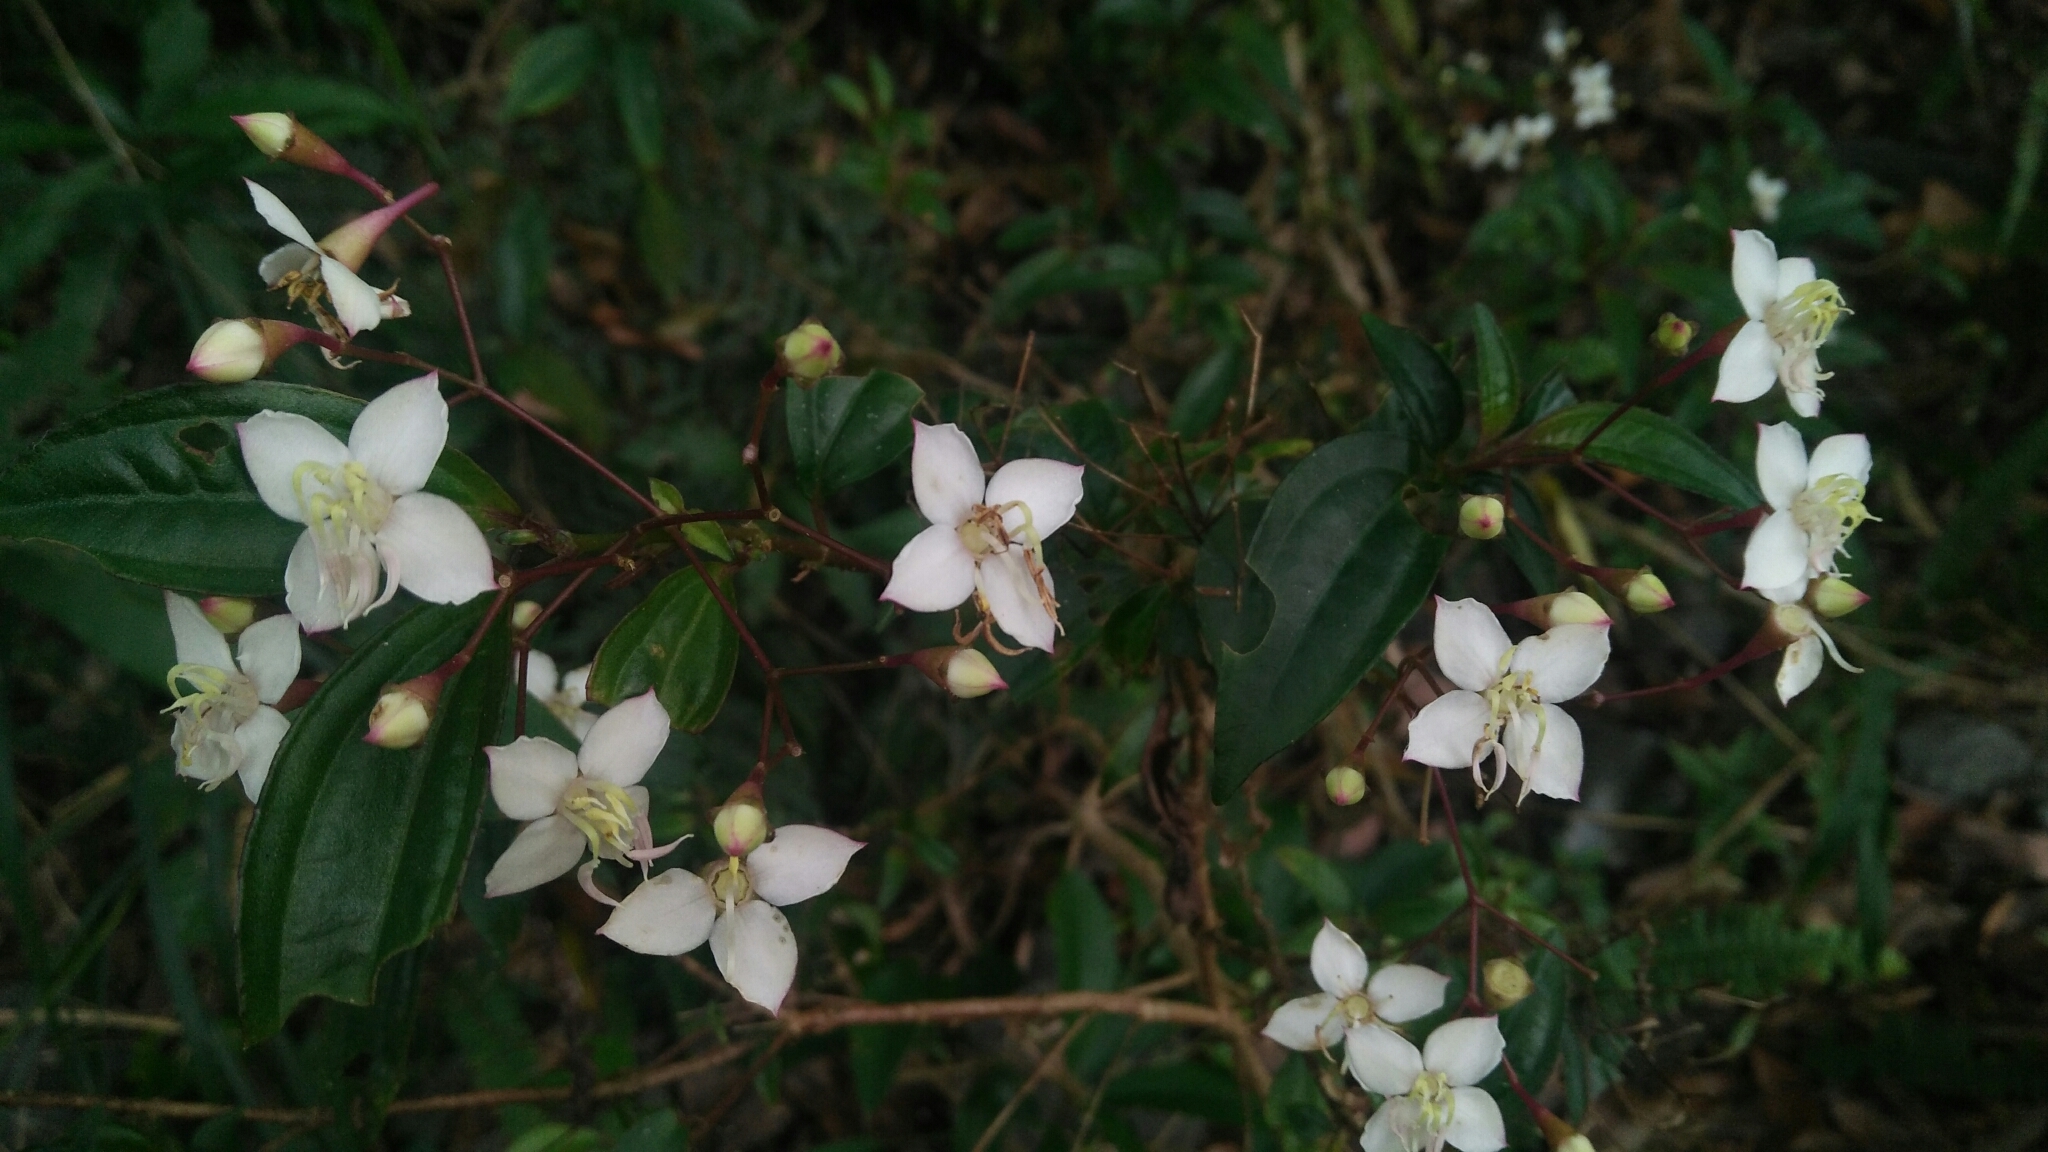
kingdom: Plantae
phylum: Tracheophyta
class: Magnoliopsida
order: Myrtales
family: Melastomataceae
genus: Bredia
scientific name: Bredia oldhamii
